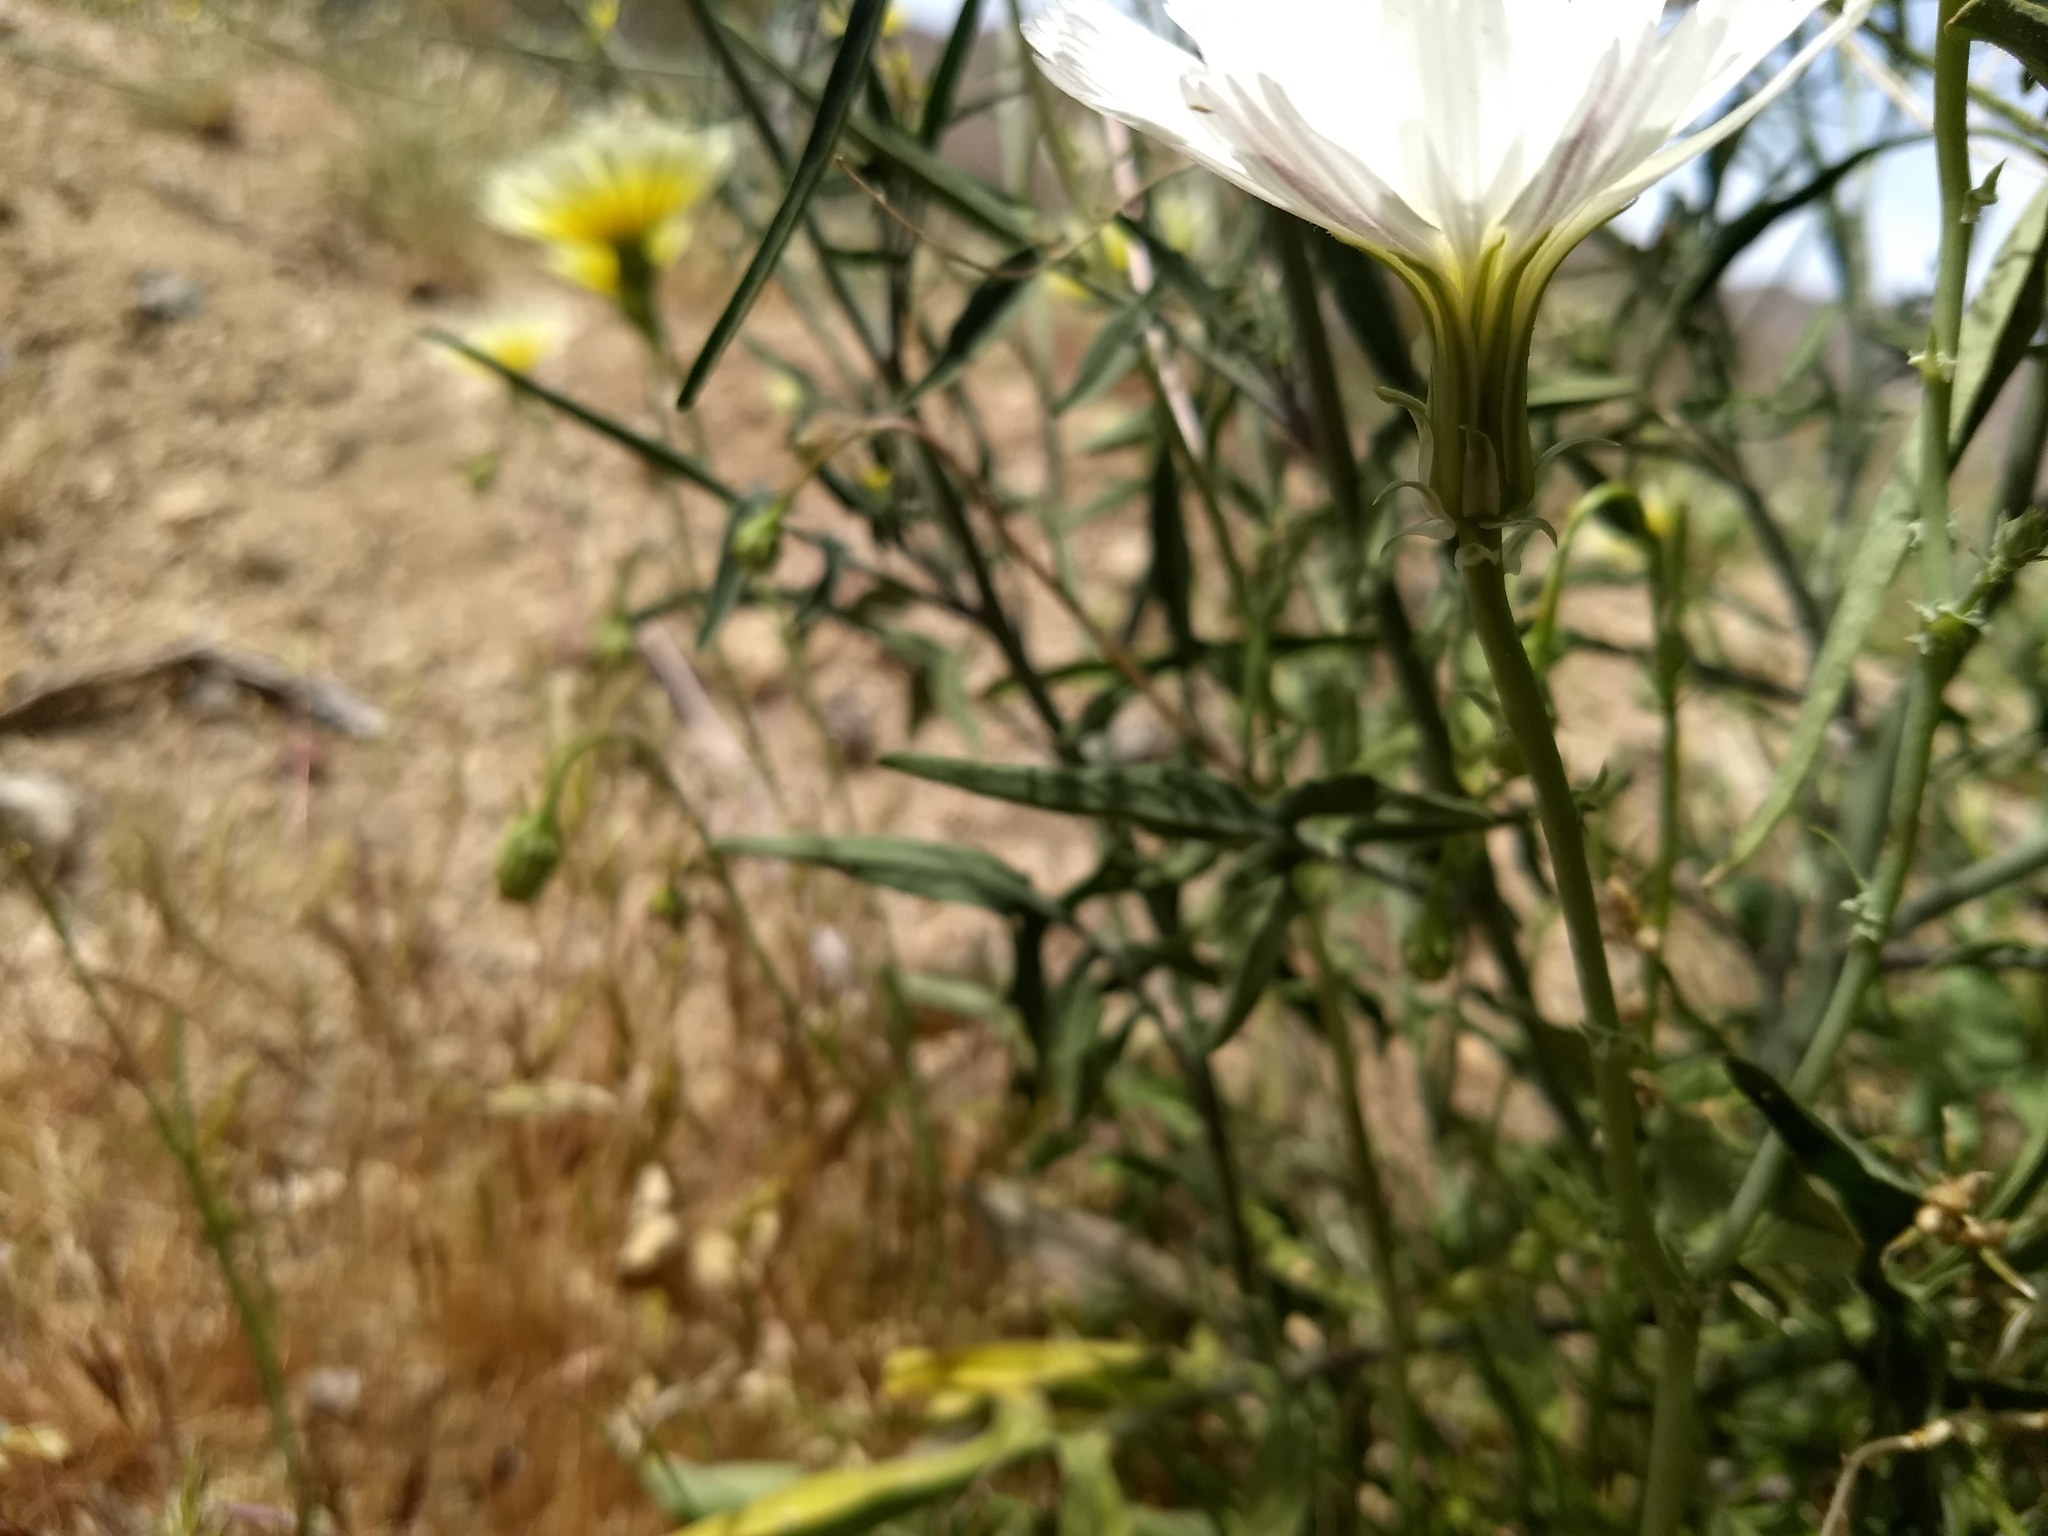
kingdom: Plantae
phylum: Tracheophyta
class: Magnoliopsida
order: Asterales
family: Asteraceae
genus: Rafinesquia
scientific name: Rafinesquia neomexicana
